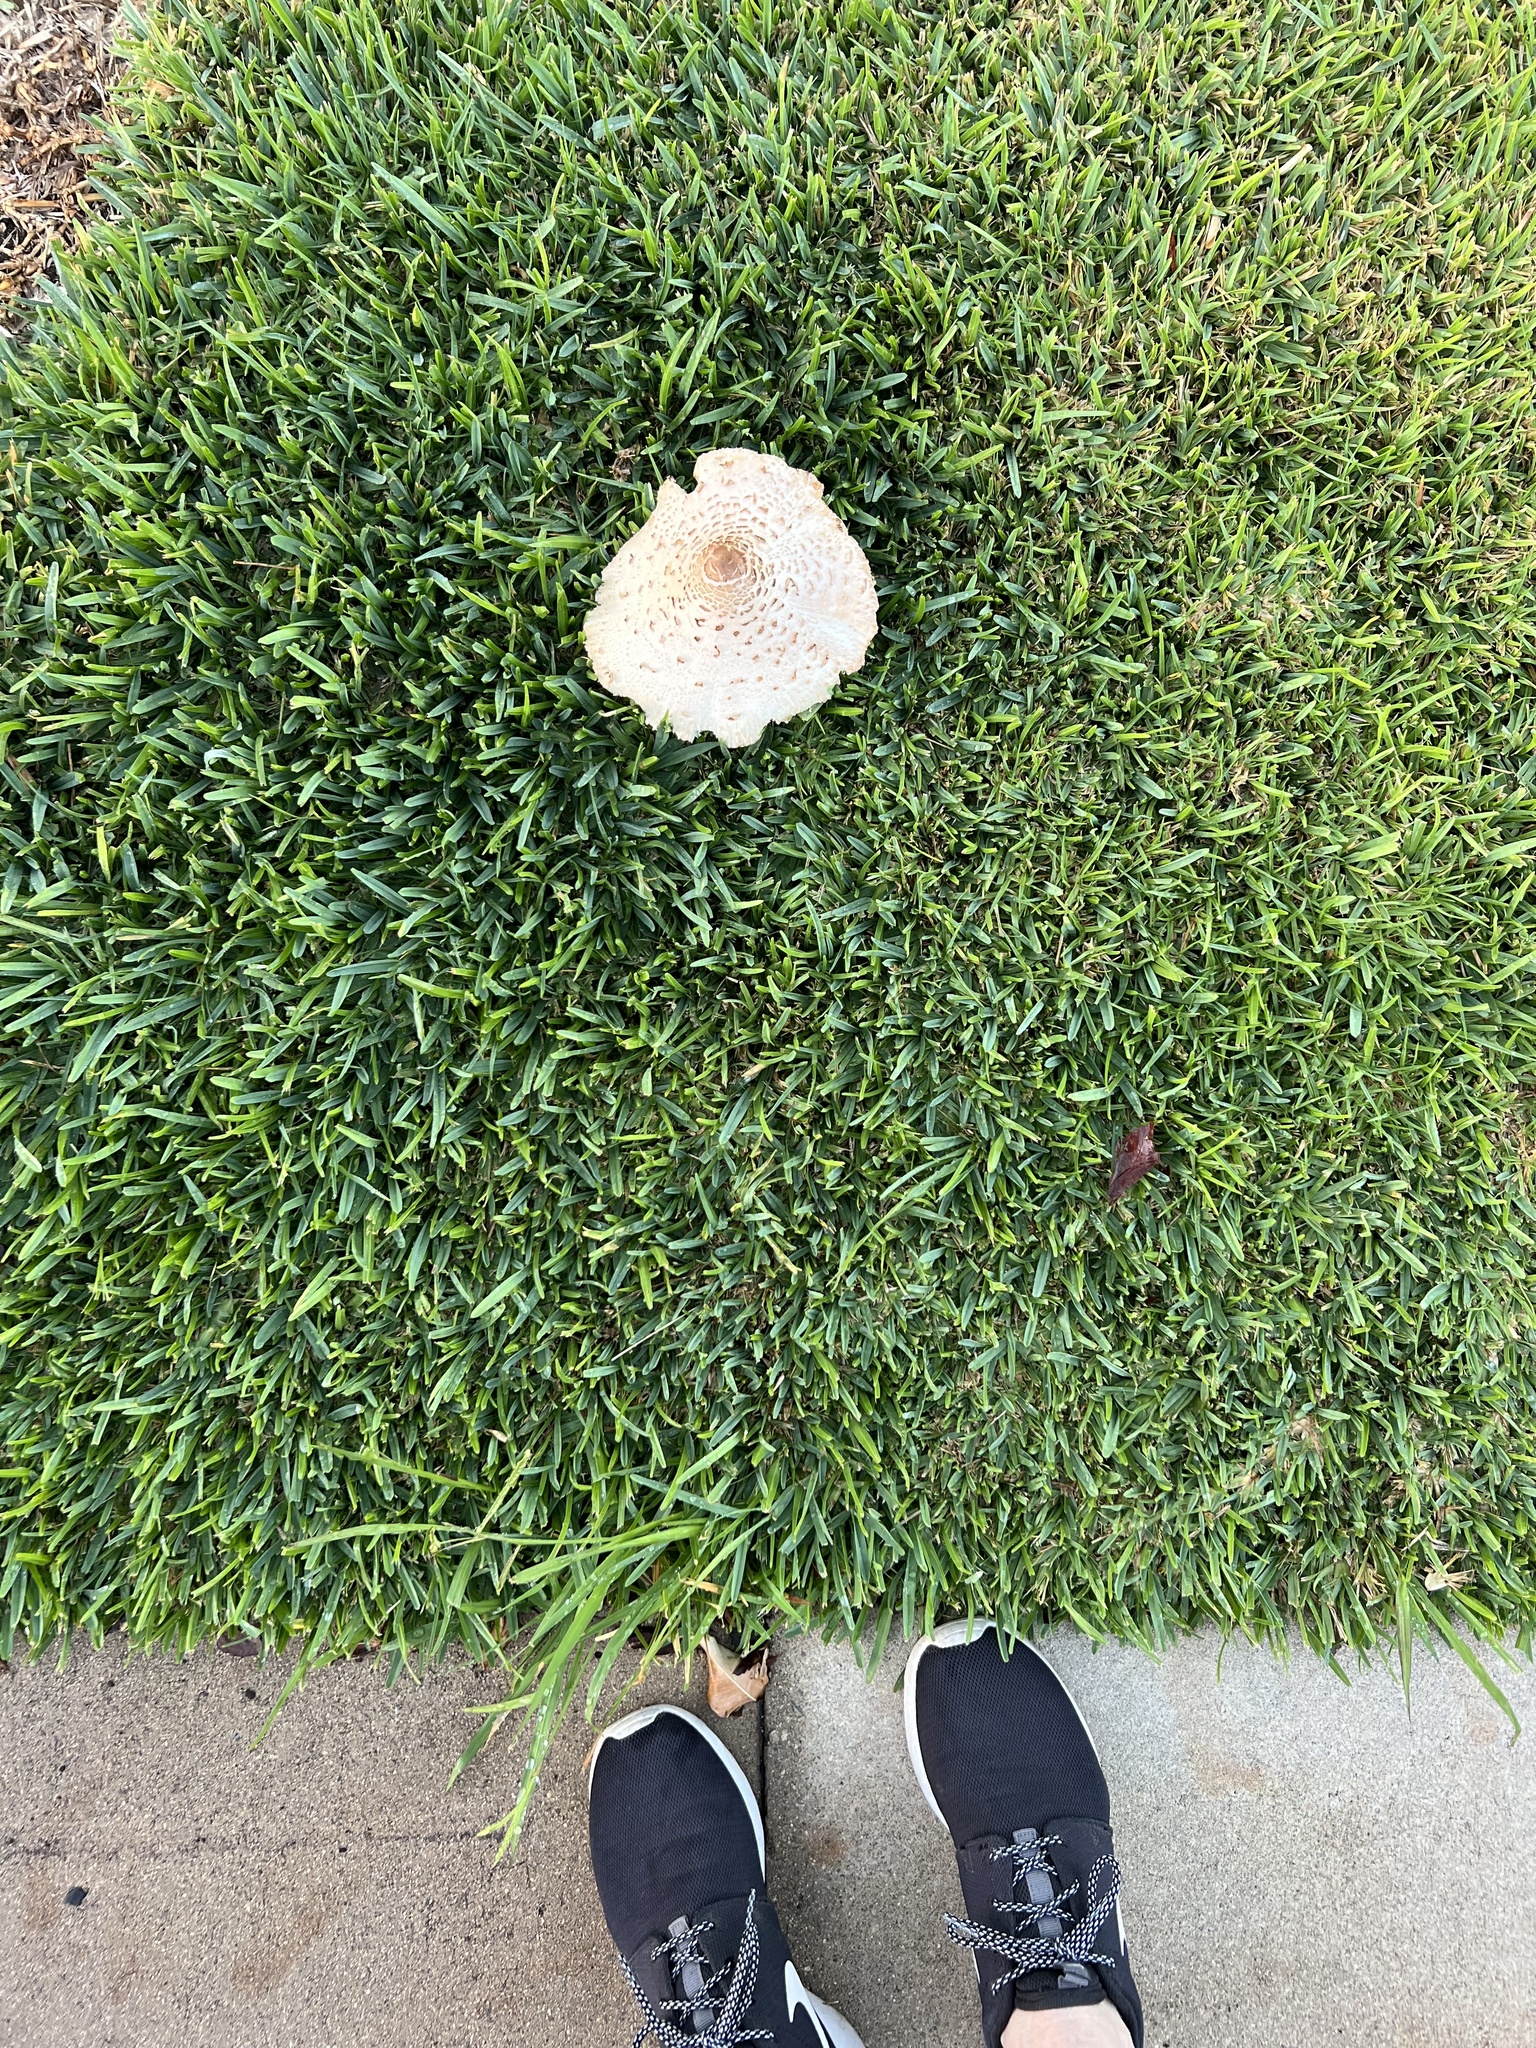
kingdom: Fungi
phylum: Basidiomycota
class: Agaricomycetes
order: Agaricales
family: Agaricaceae
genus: Chlorophyllum
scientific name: Chlorophyllum molybdites
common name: False parasol
